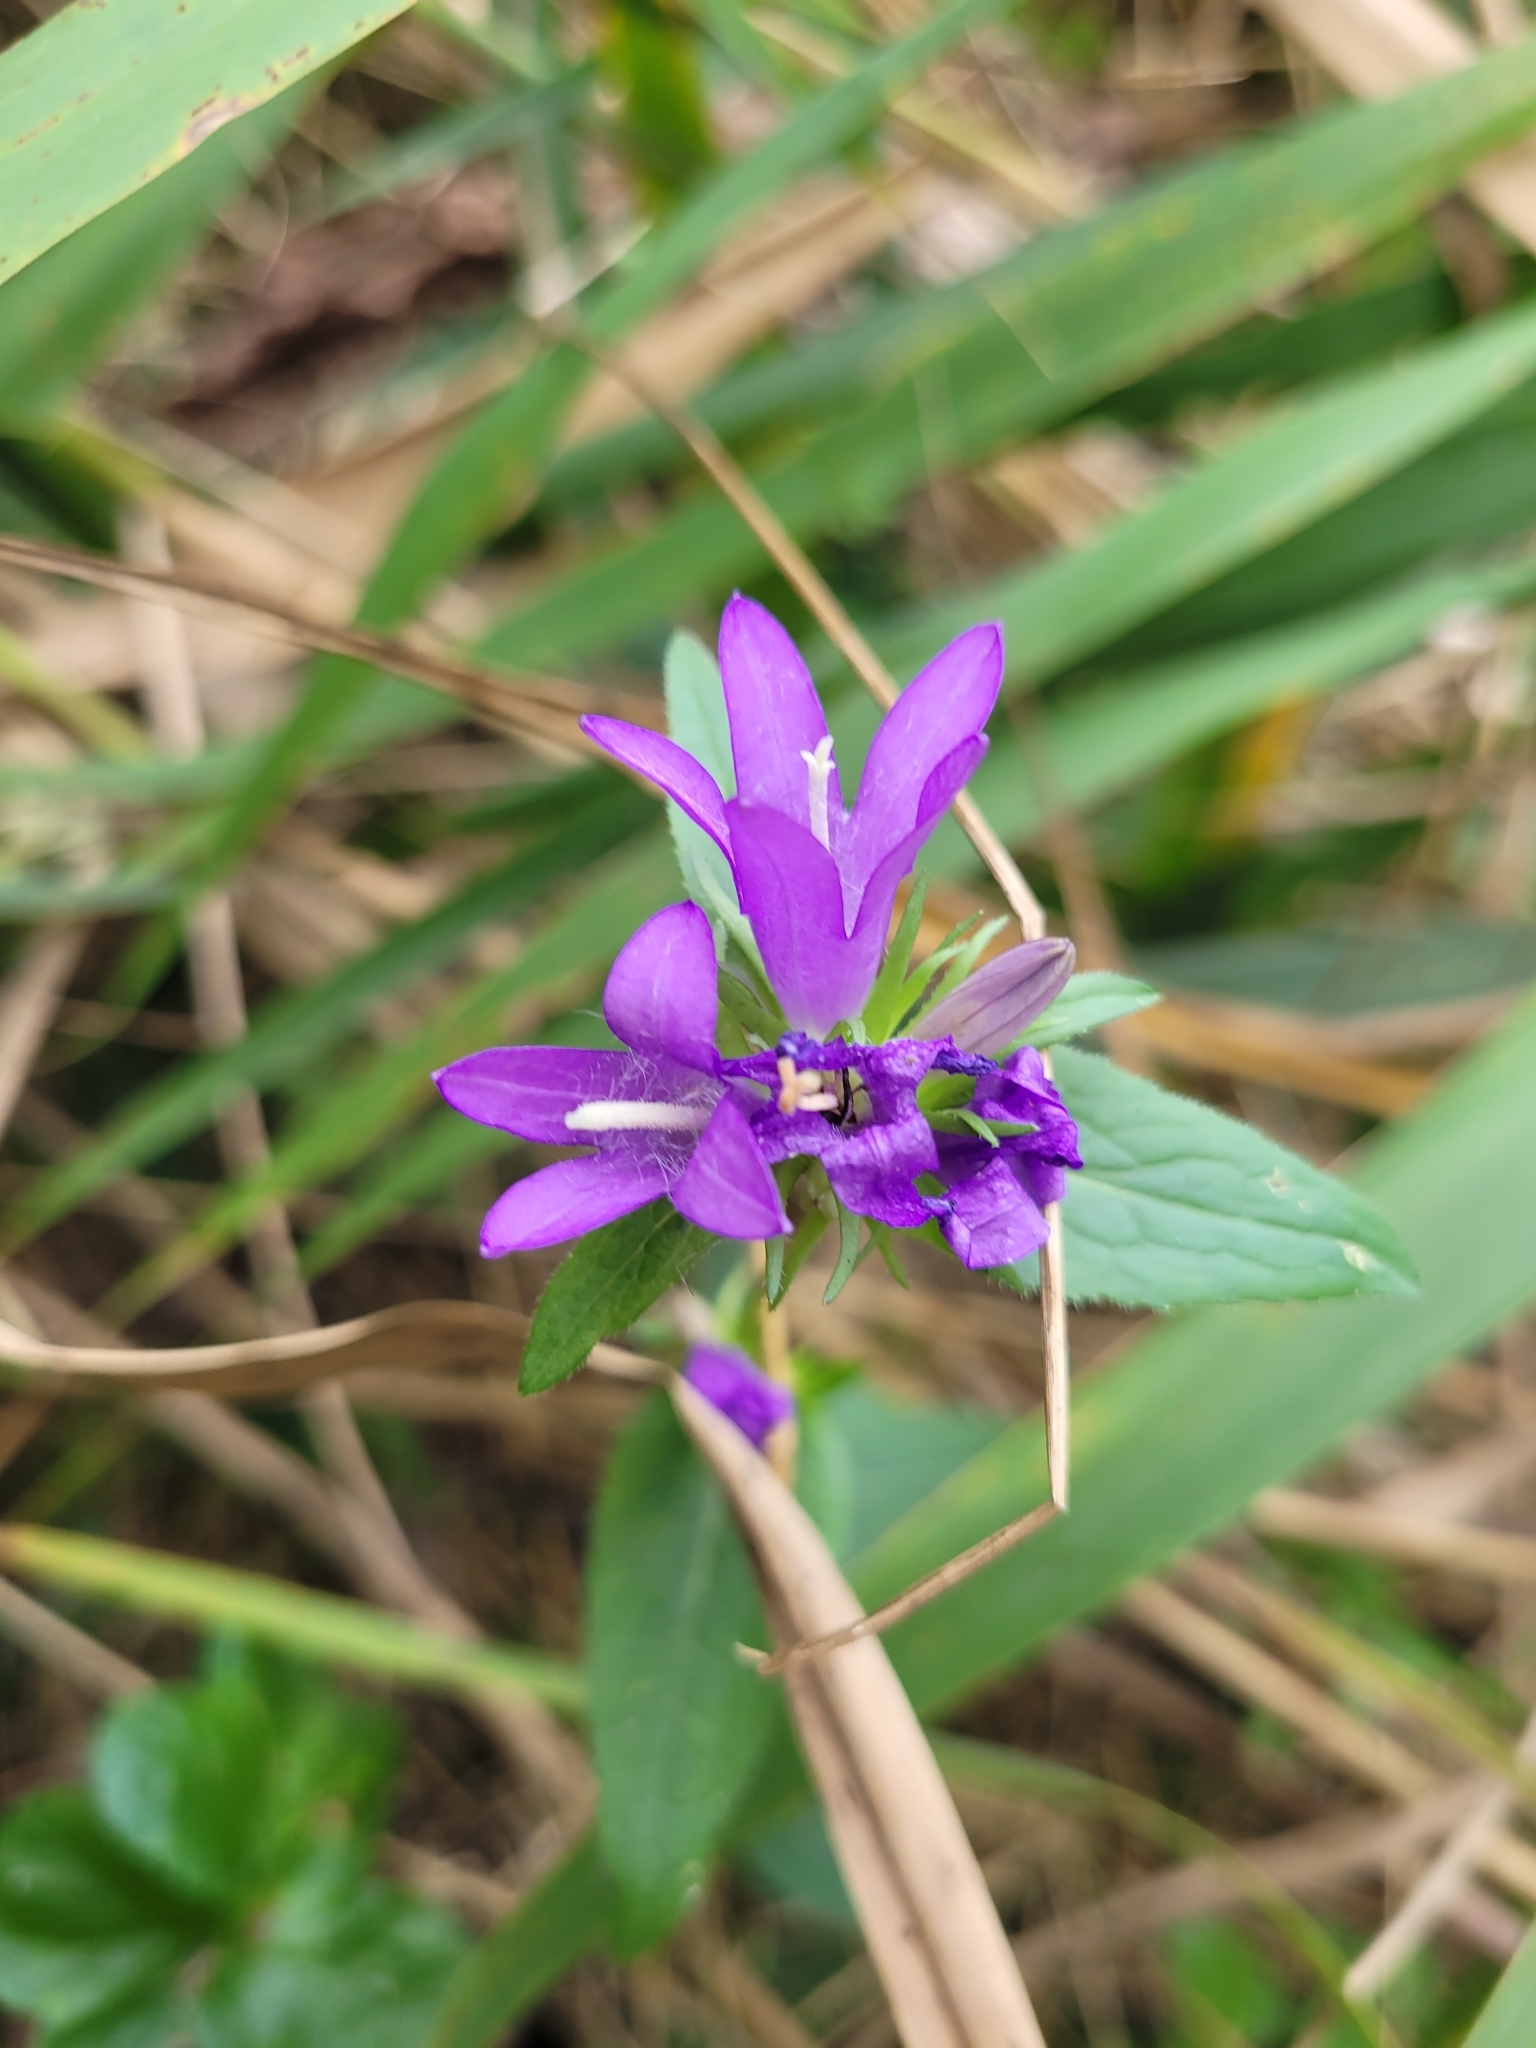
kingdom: Plantae
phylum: Tracheophyta
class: Magnoliopsida
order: Asterales
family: Campanulaceae
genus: Campanula
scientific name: Campanula glomerata
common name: Clustered bellflower
